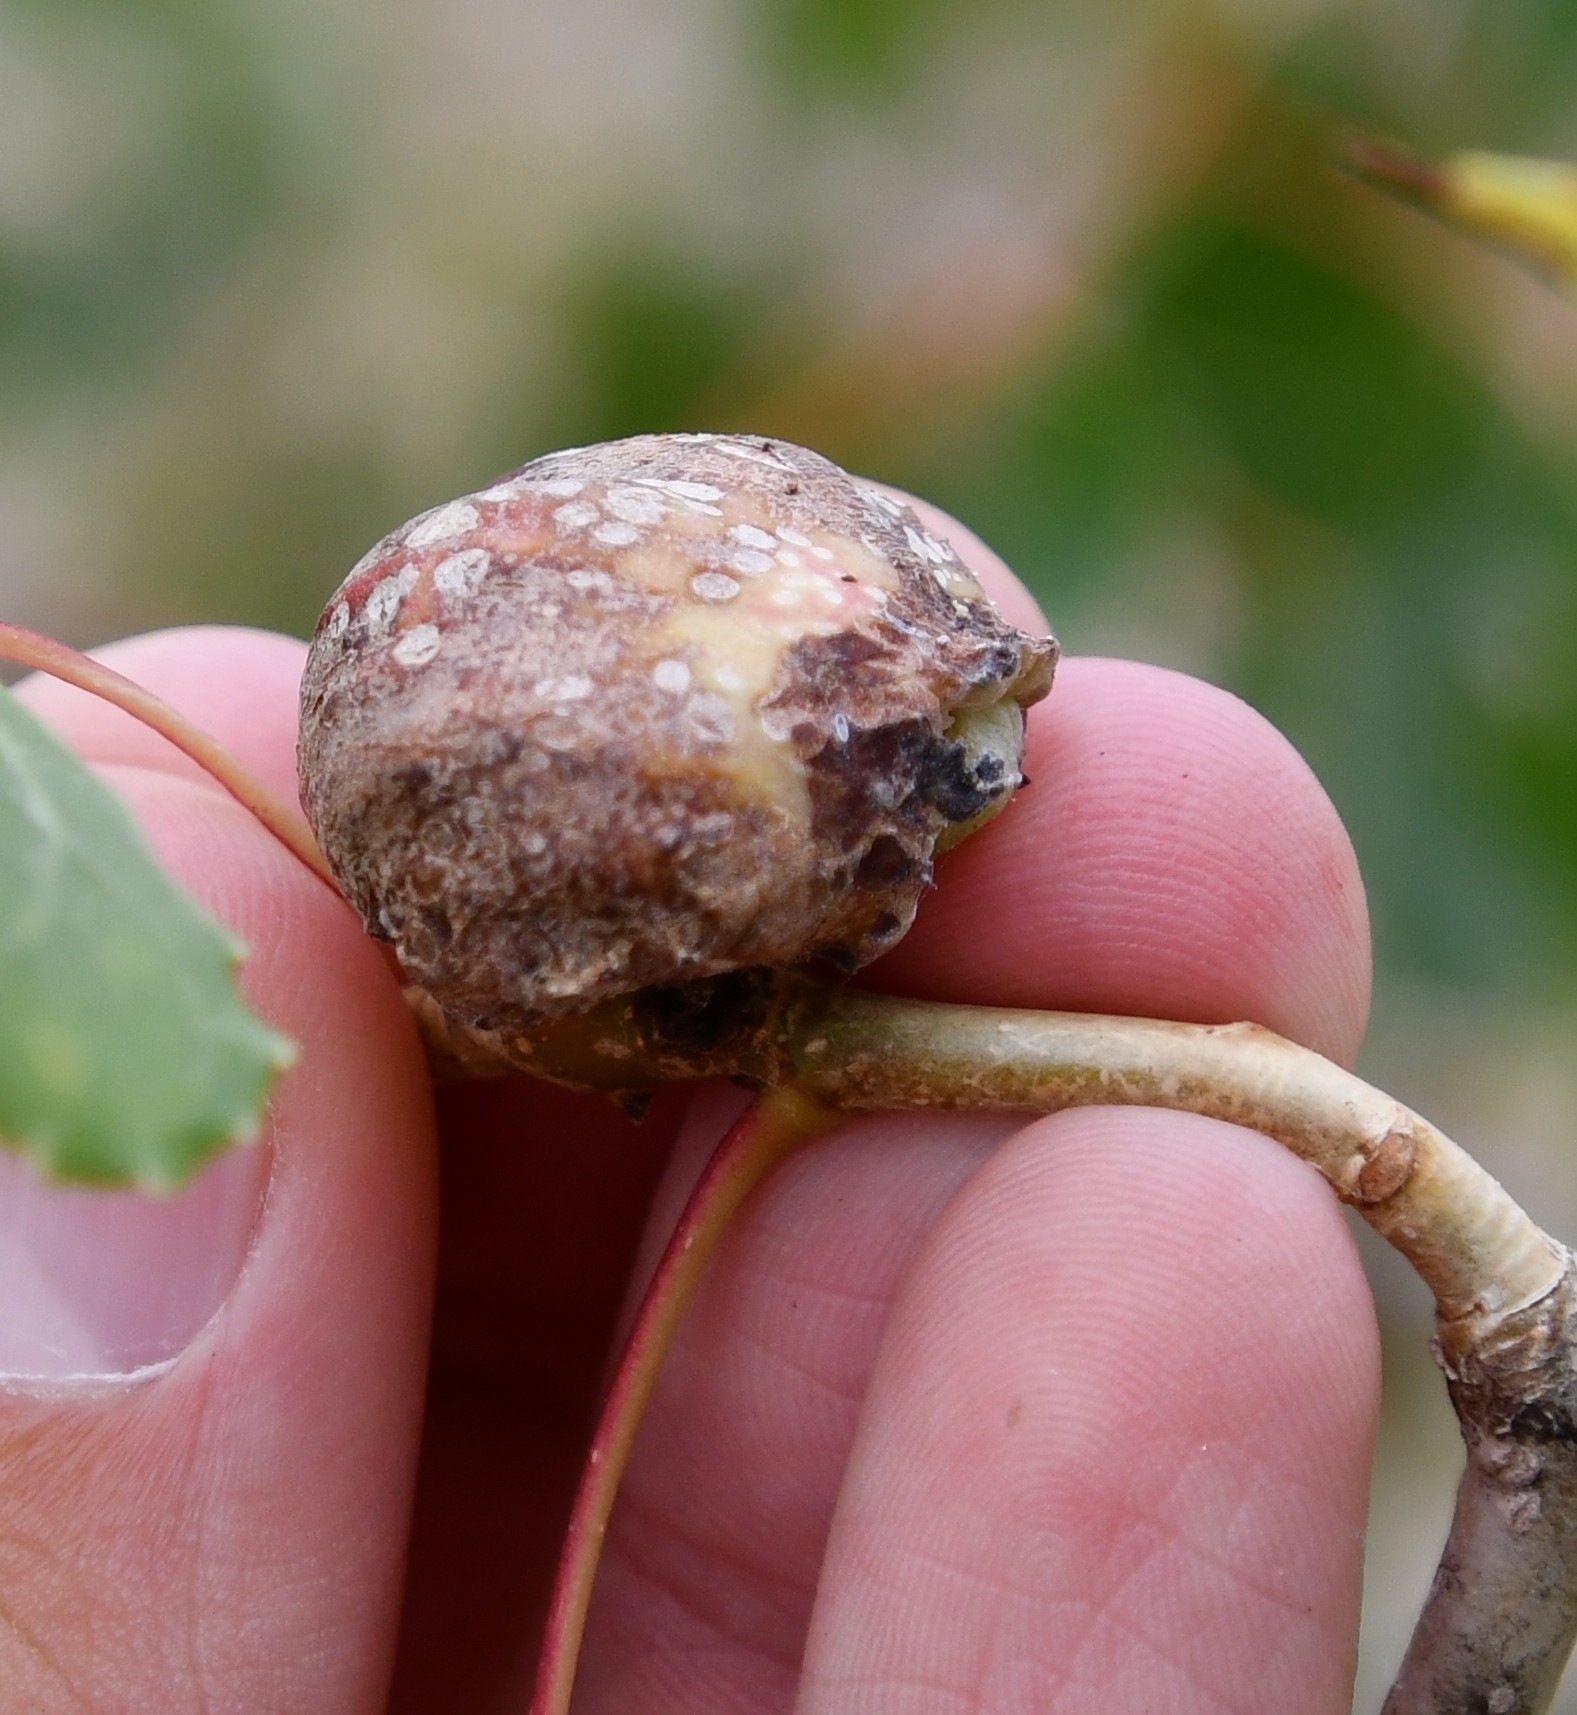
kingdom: Animalia
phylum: Arthropoda
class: Insecta
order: Hemiptera
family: Aphididae
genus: Pemphigus
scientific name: Pemphigus immunis
